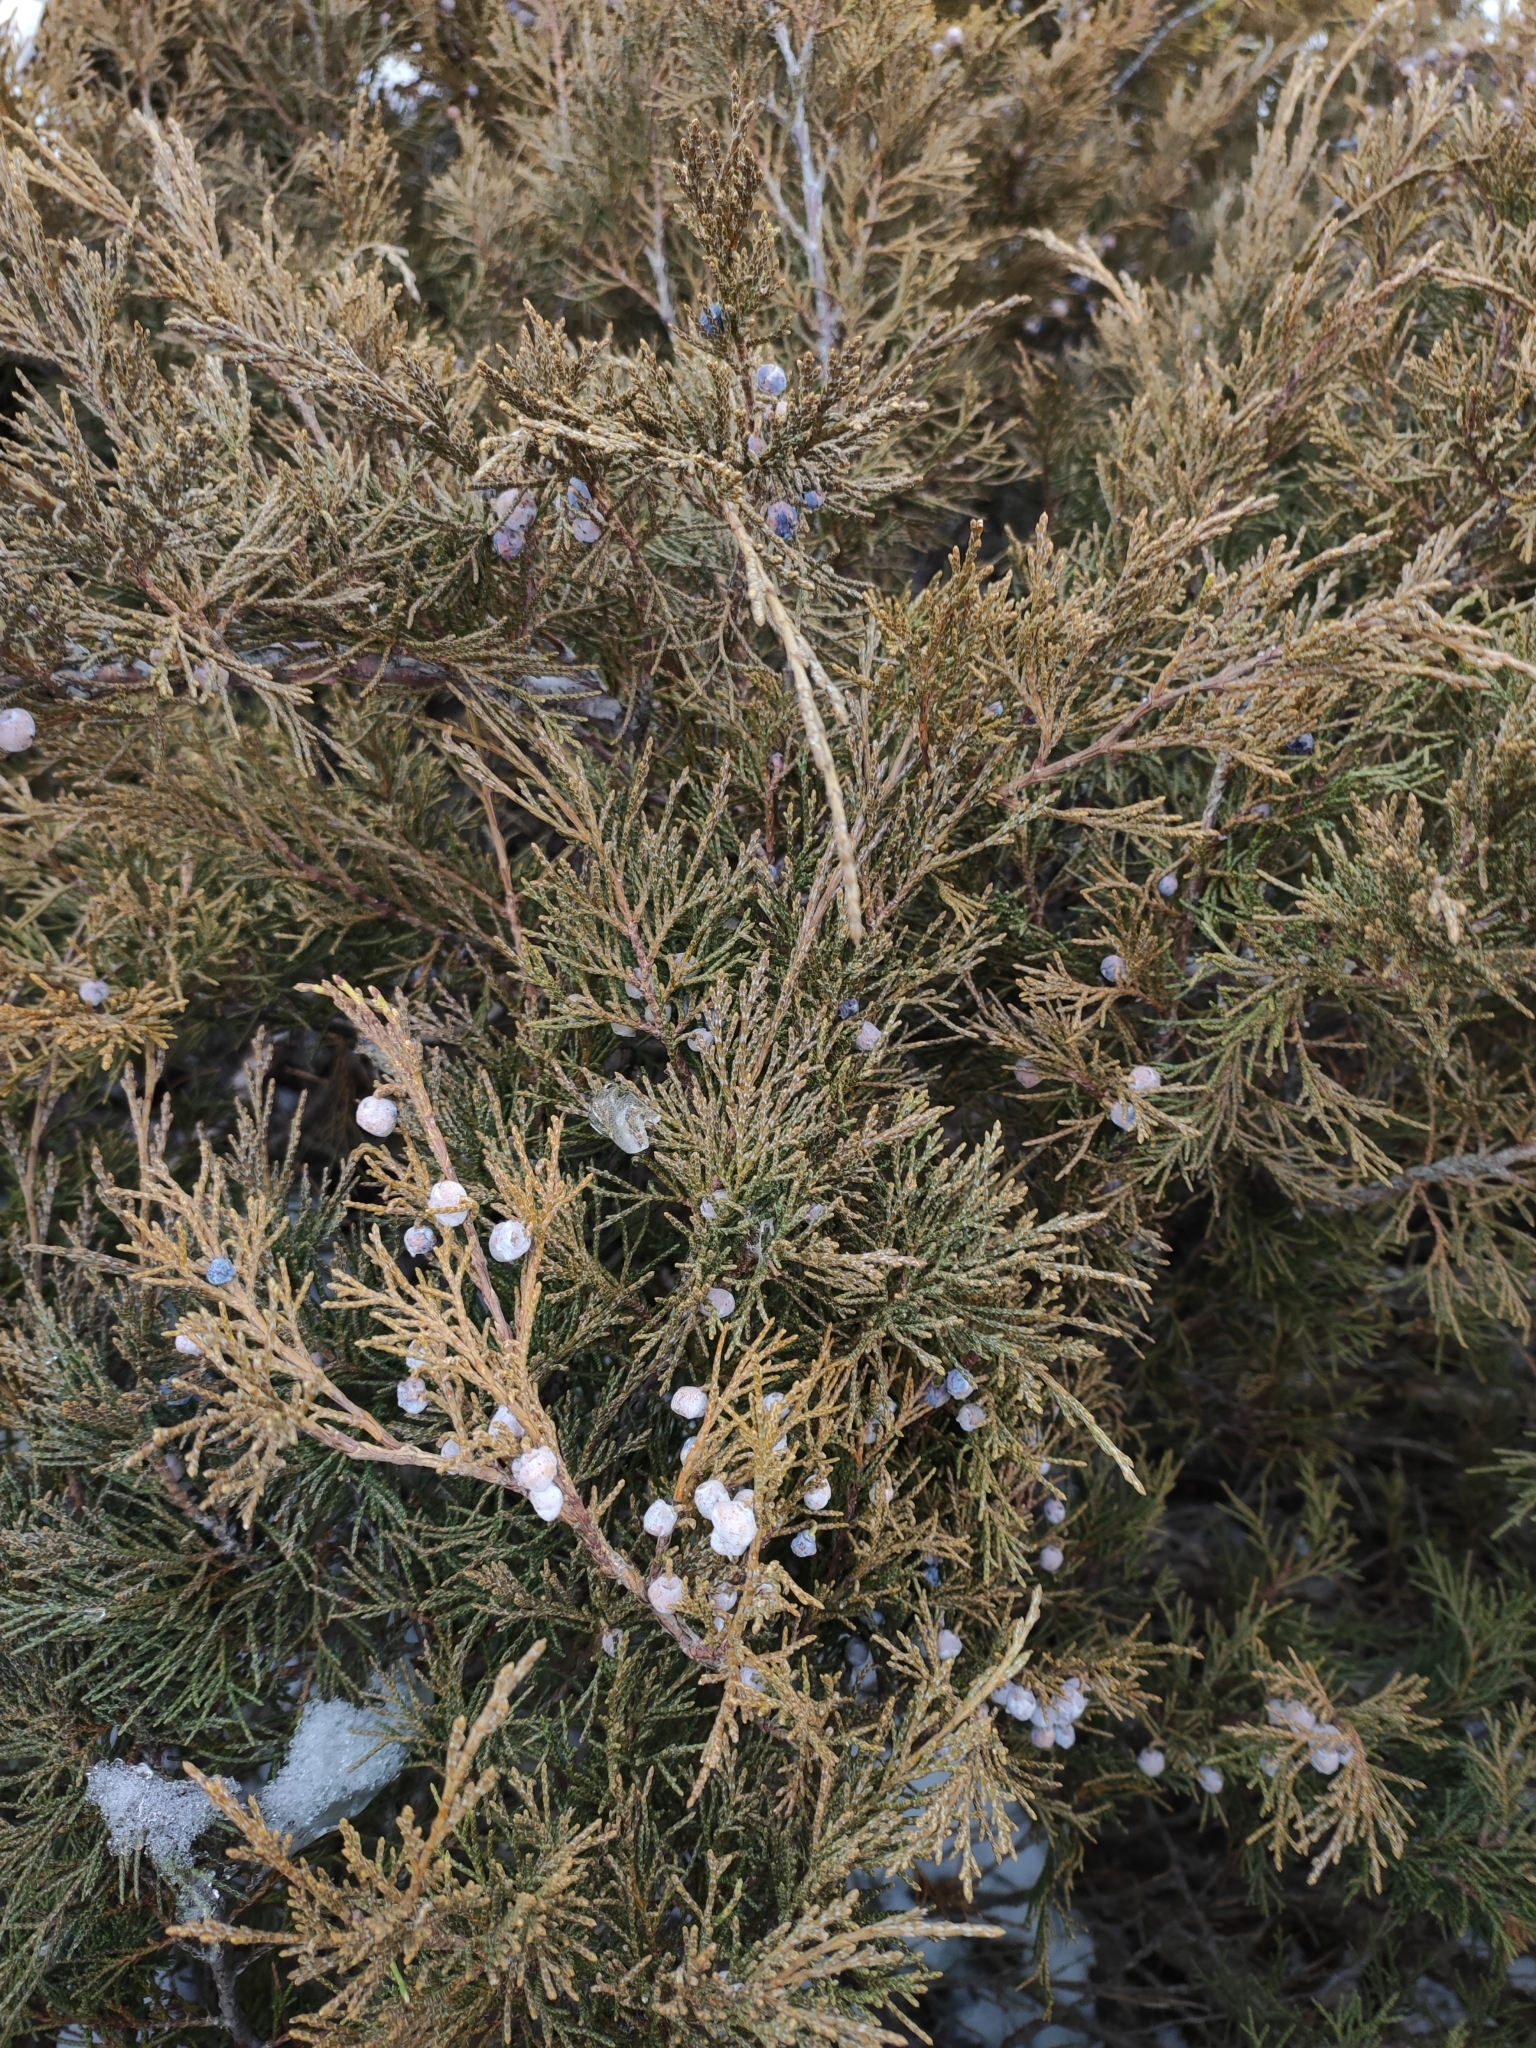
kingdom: Plantae
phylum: Tracheophyta
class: Pinopsida
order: Pinales
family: Cupressaceae
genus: Juniperus
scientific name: Juniperus sabina
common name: Savin
